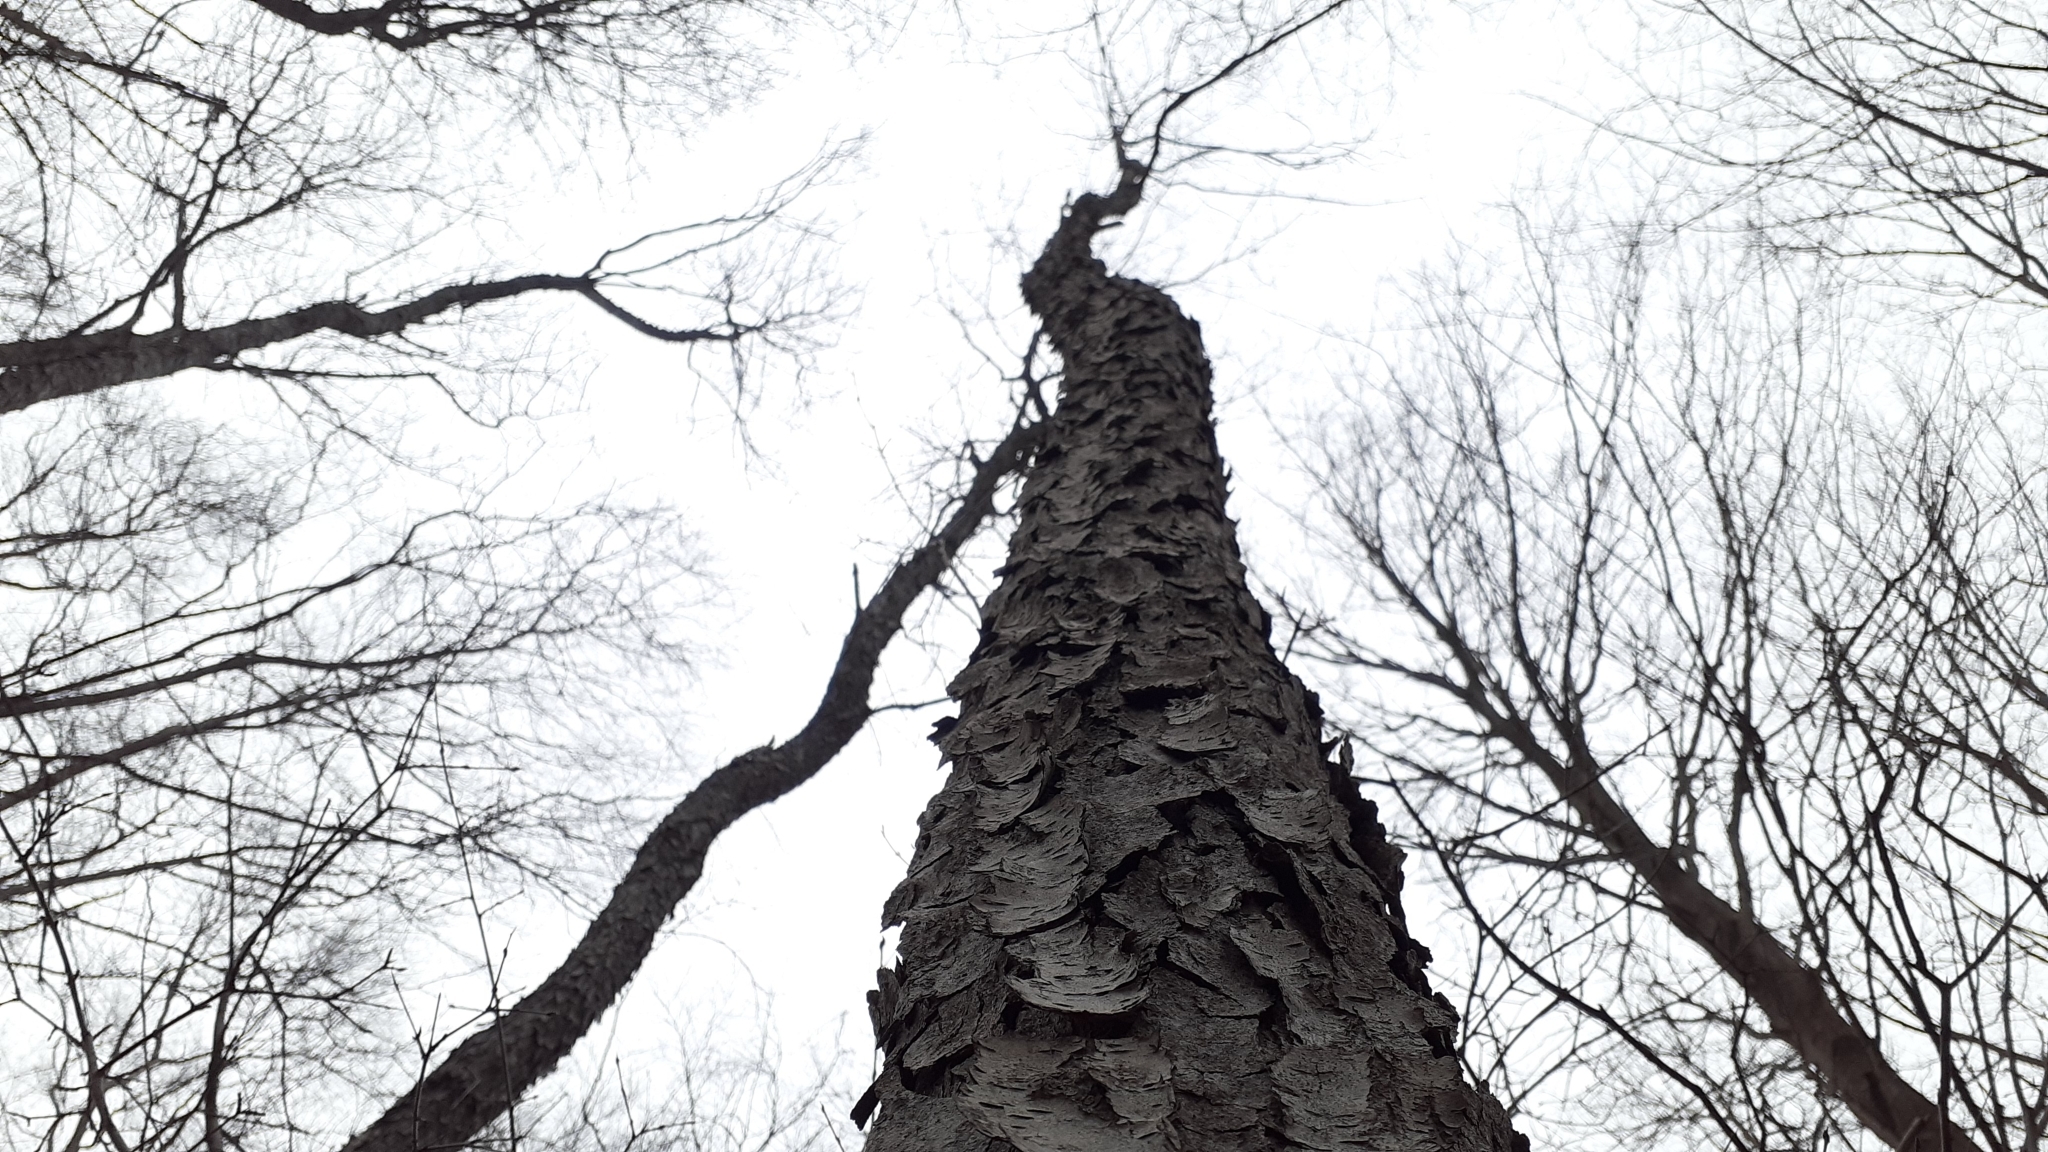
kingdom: Plantae
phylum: Tracheophyta
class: Magnoliopsida
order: Rosales
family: Rosaceae
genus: Prunus
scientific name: Prunus serotina
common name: Black cherry
